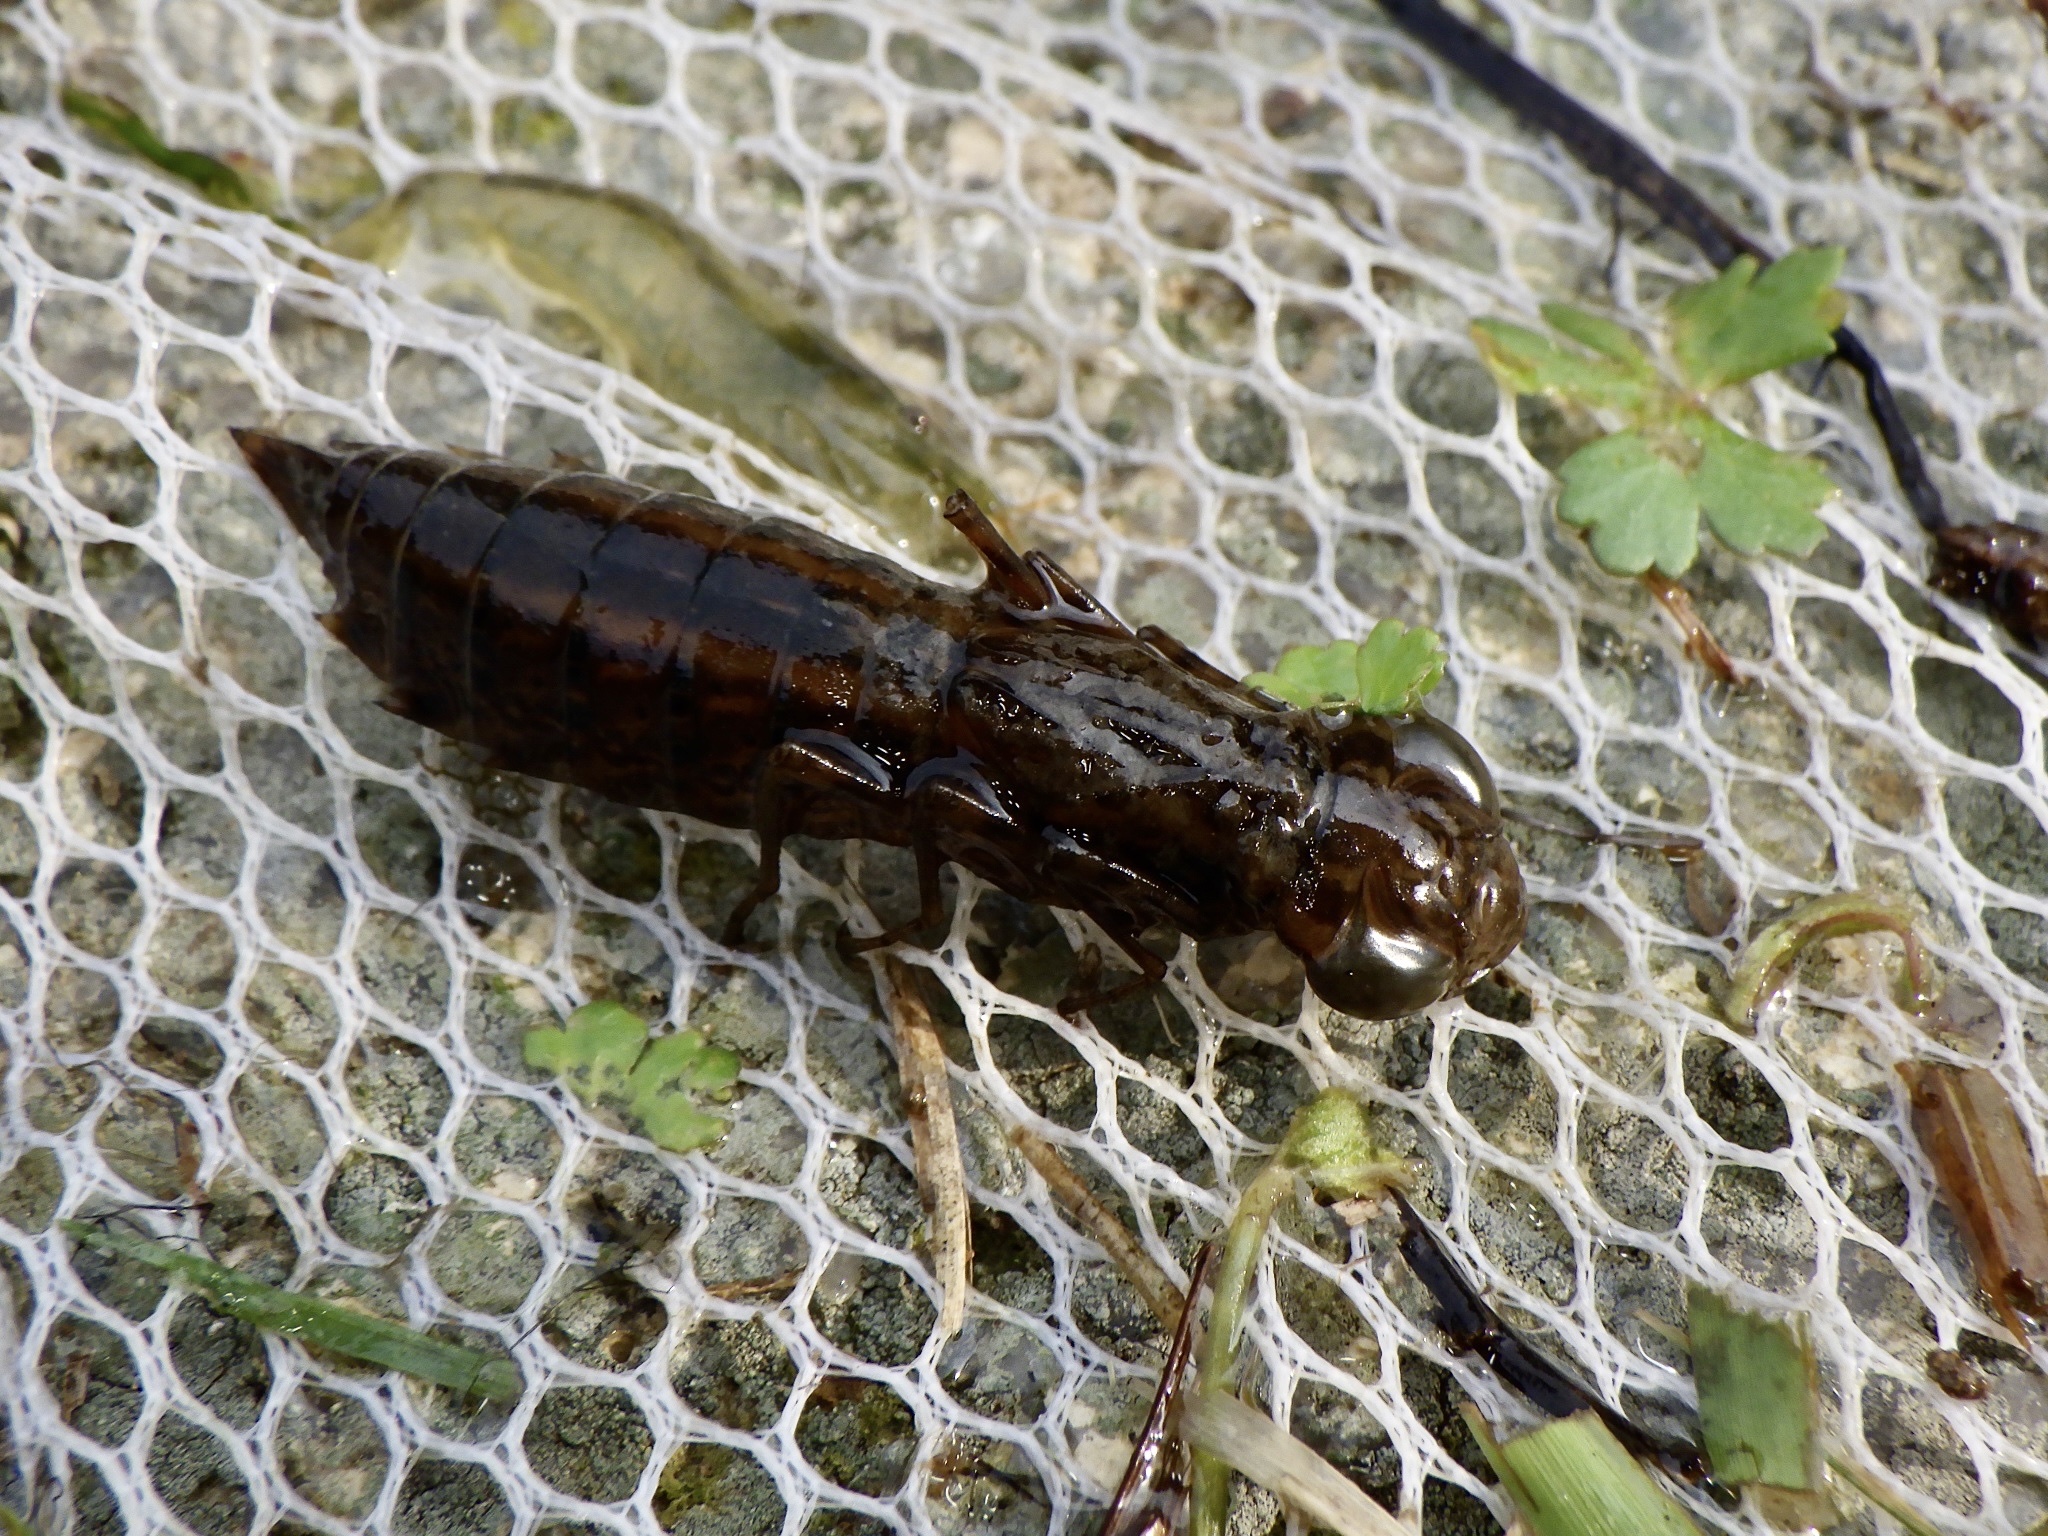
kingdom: Animalia
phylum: Arthropoda
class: Insecta
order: Odonata
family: Aeshnidae
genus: Anax
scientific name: Anax julius
